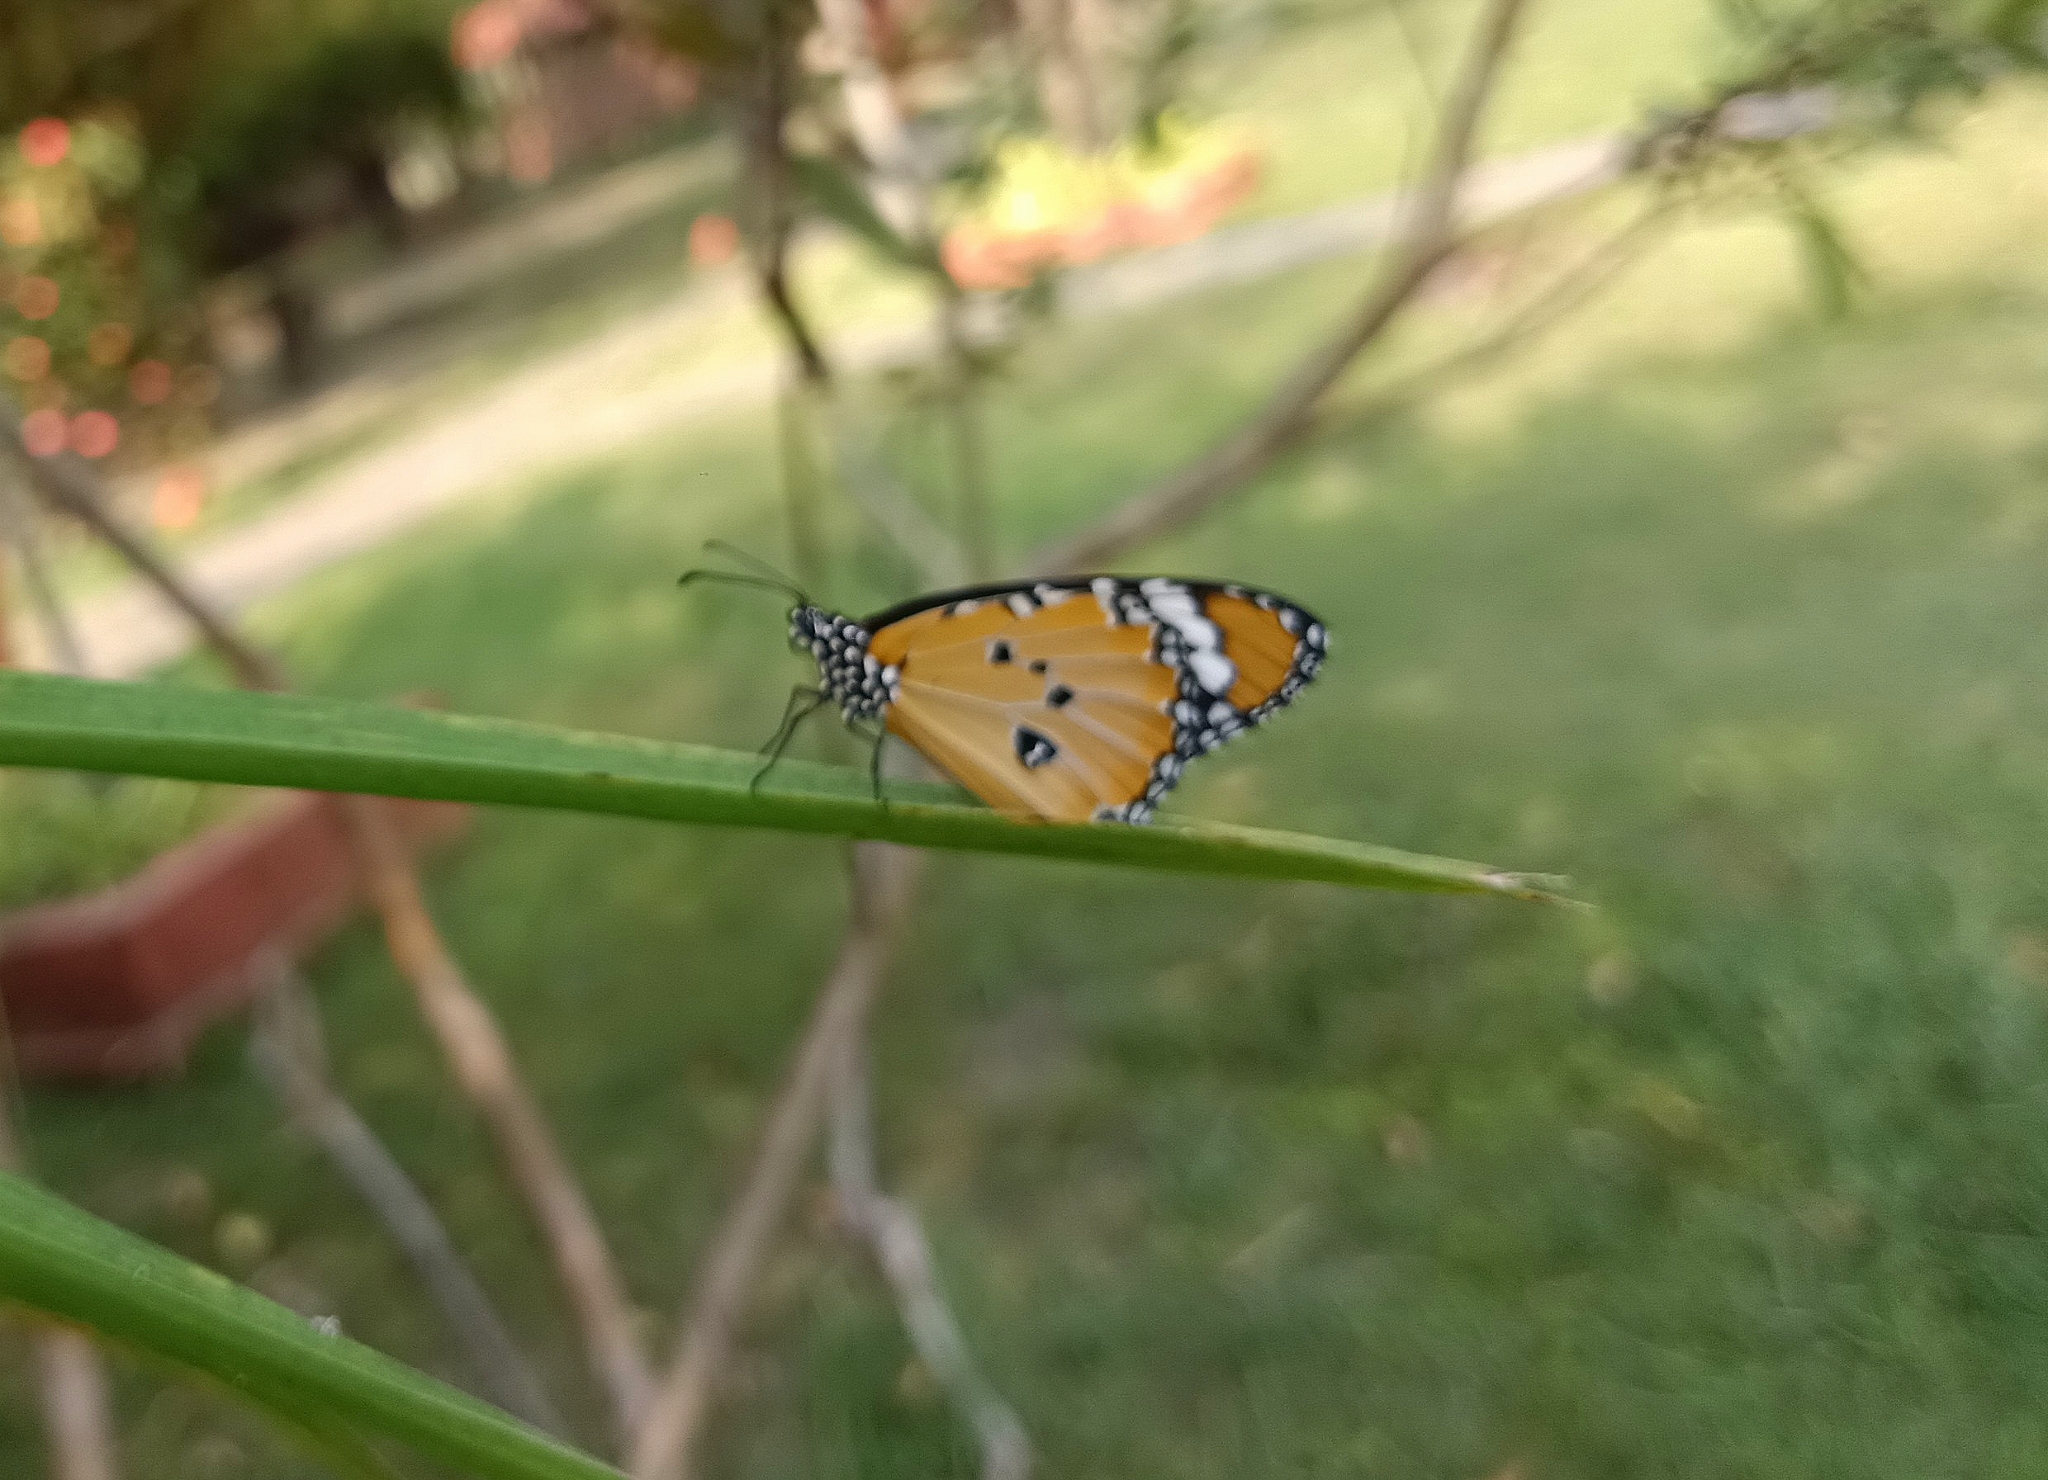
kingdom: Animalia
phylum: Arthropoda
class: Insecta
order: Lepidoptera
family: Nymphalidae
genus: Danaus
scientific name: Danaus chrysippus
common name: Plain tiger
